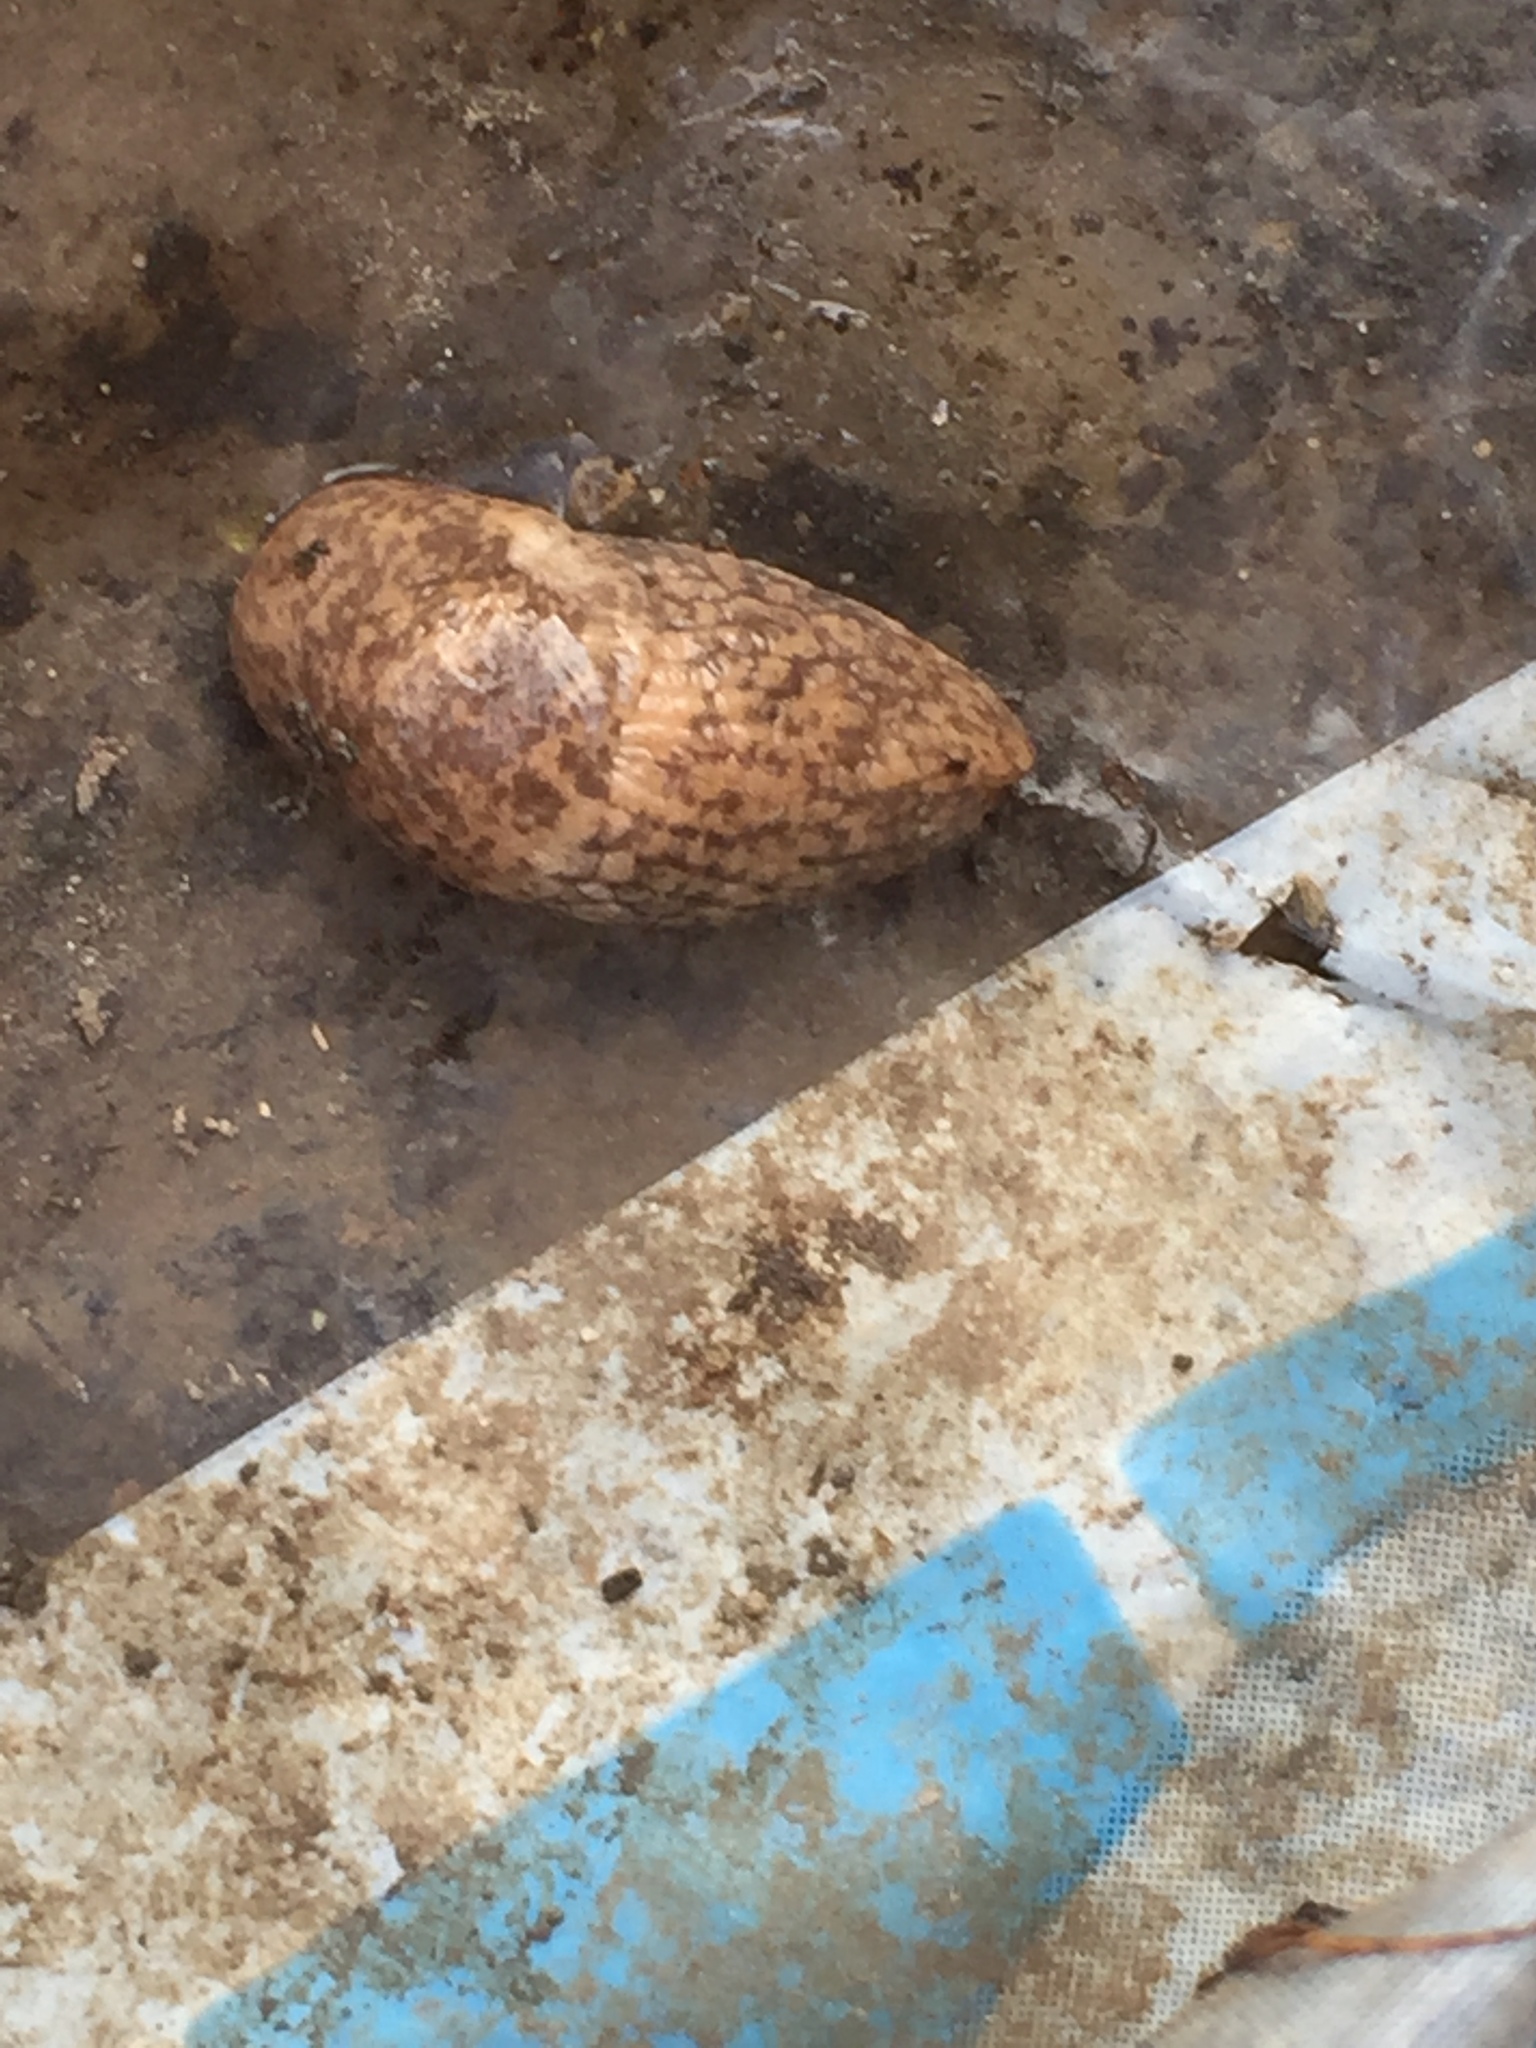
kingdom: Animalia
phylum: Mollusca
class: Gastropoda
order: Stylommatophora
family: Agriolimacidae
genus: Deroceras
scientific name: Deroceras reticulatum
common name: Gray field slug
